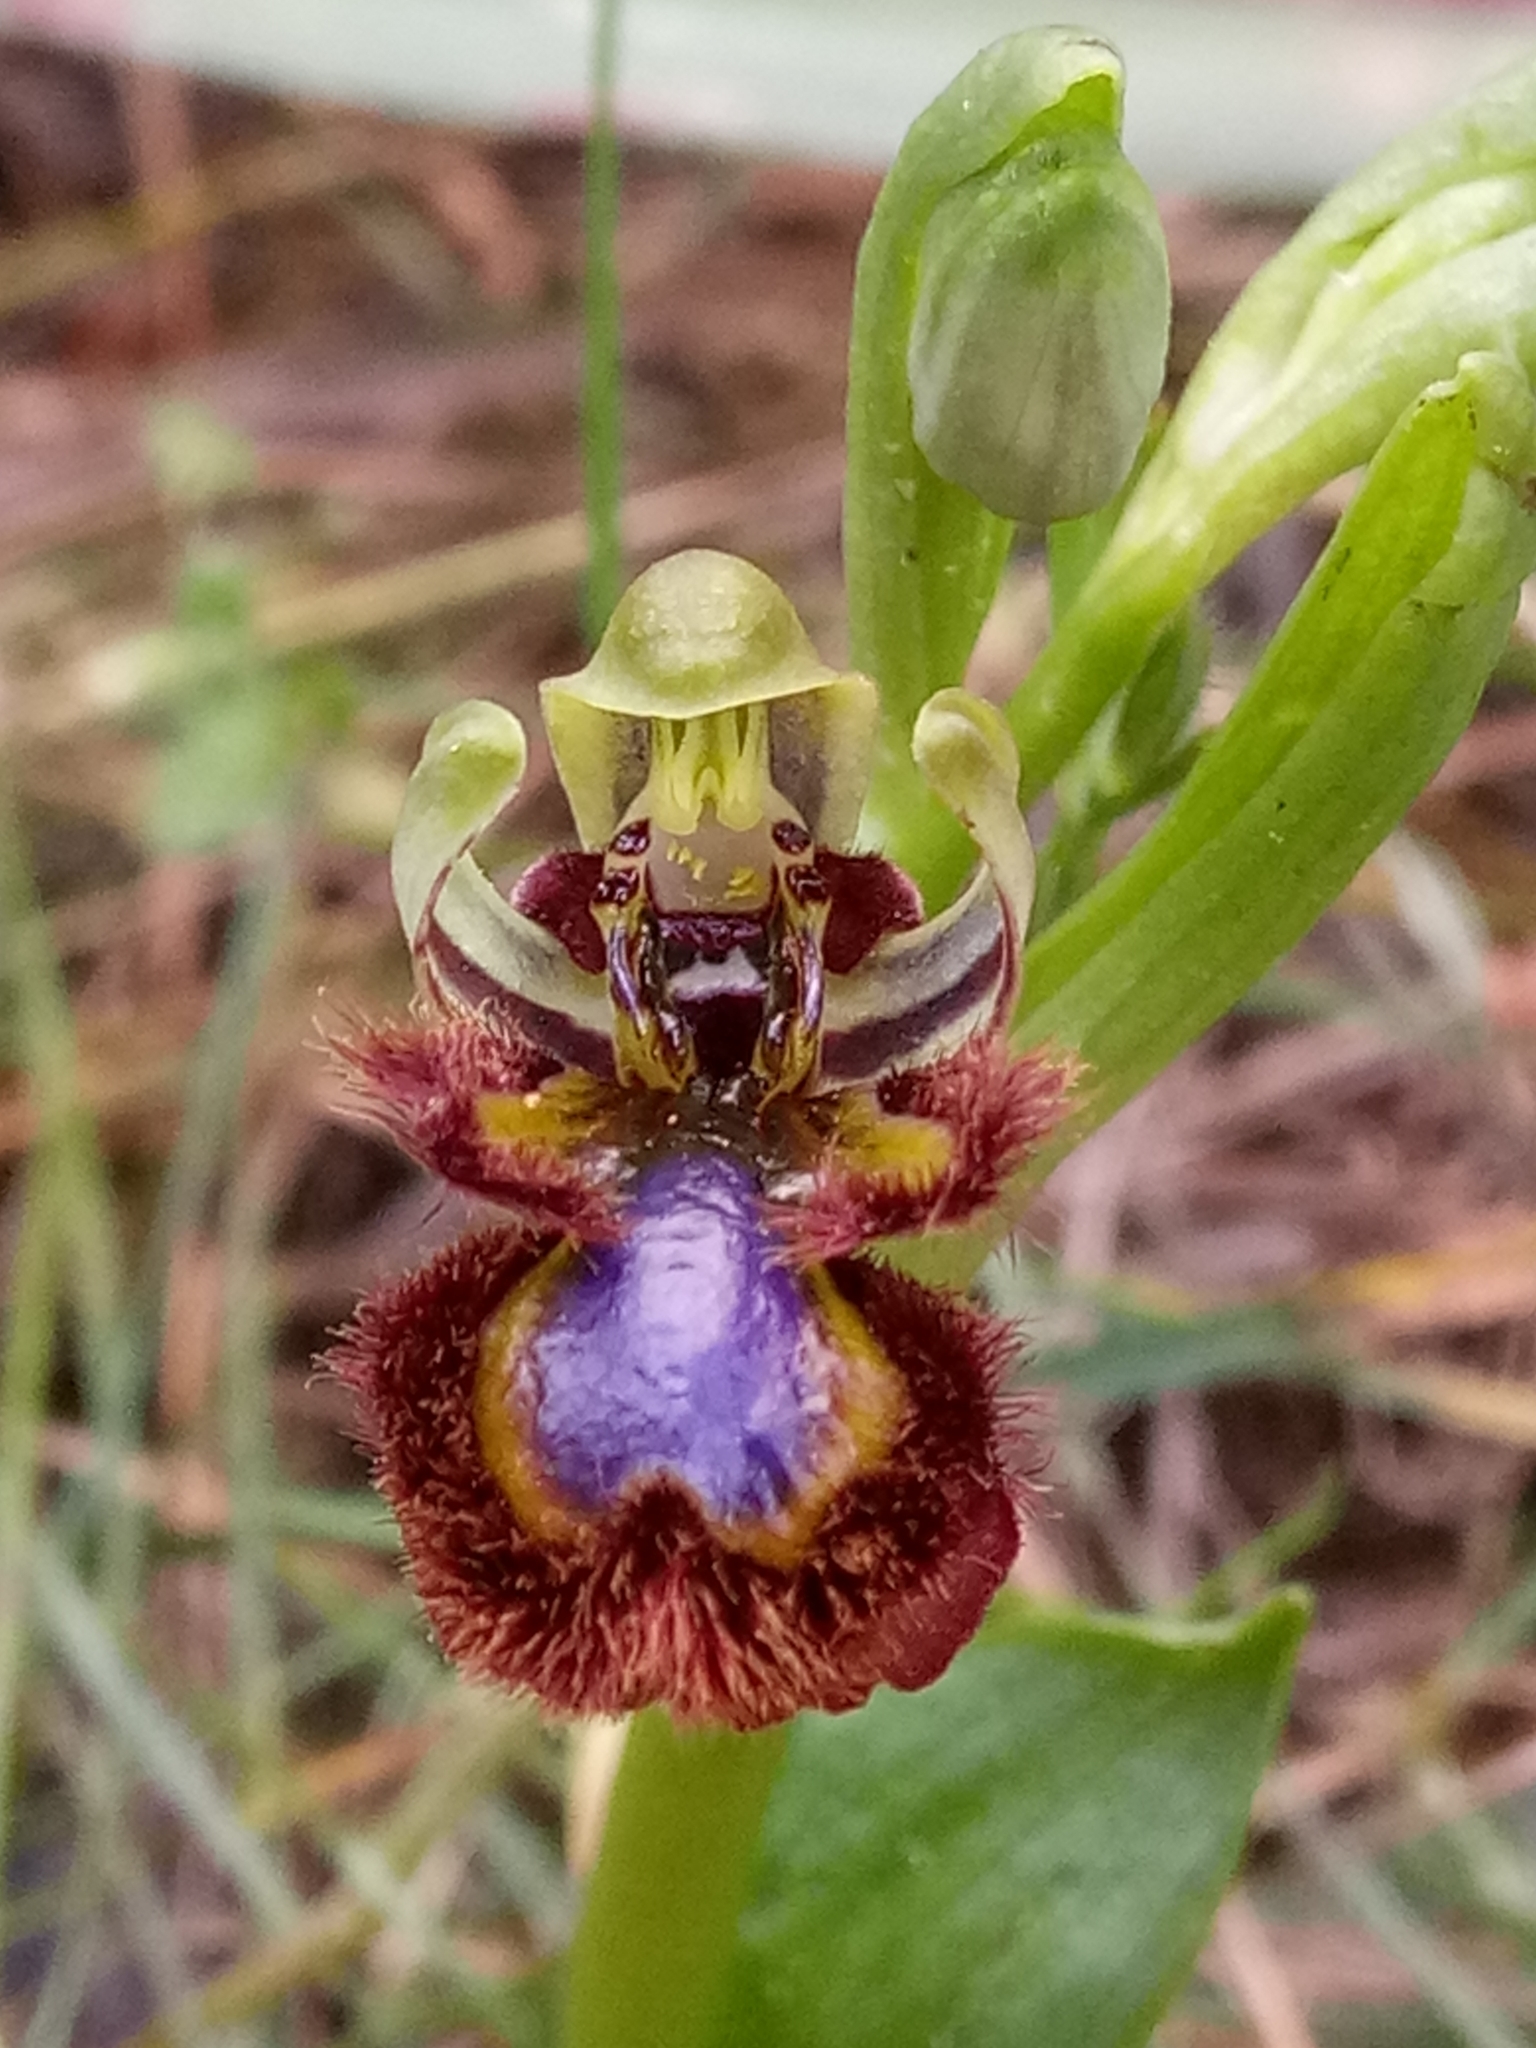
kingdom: Plantae
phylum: Tracheophyta
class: Liliopsida
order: Asparagales
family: Orchidaceae
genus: Ophrys
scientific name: Ophrys speculum
